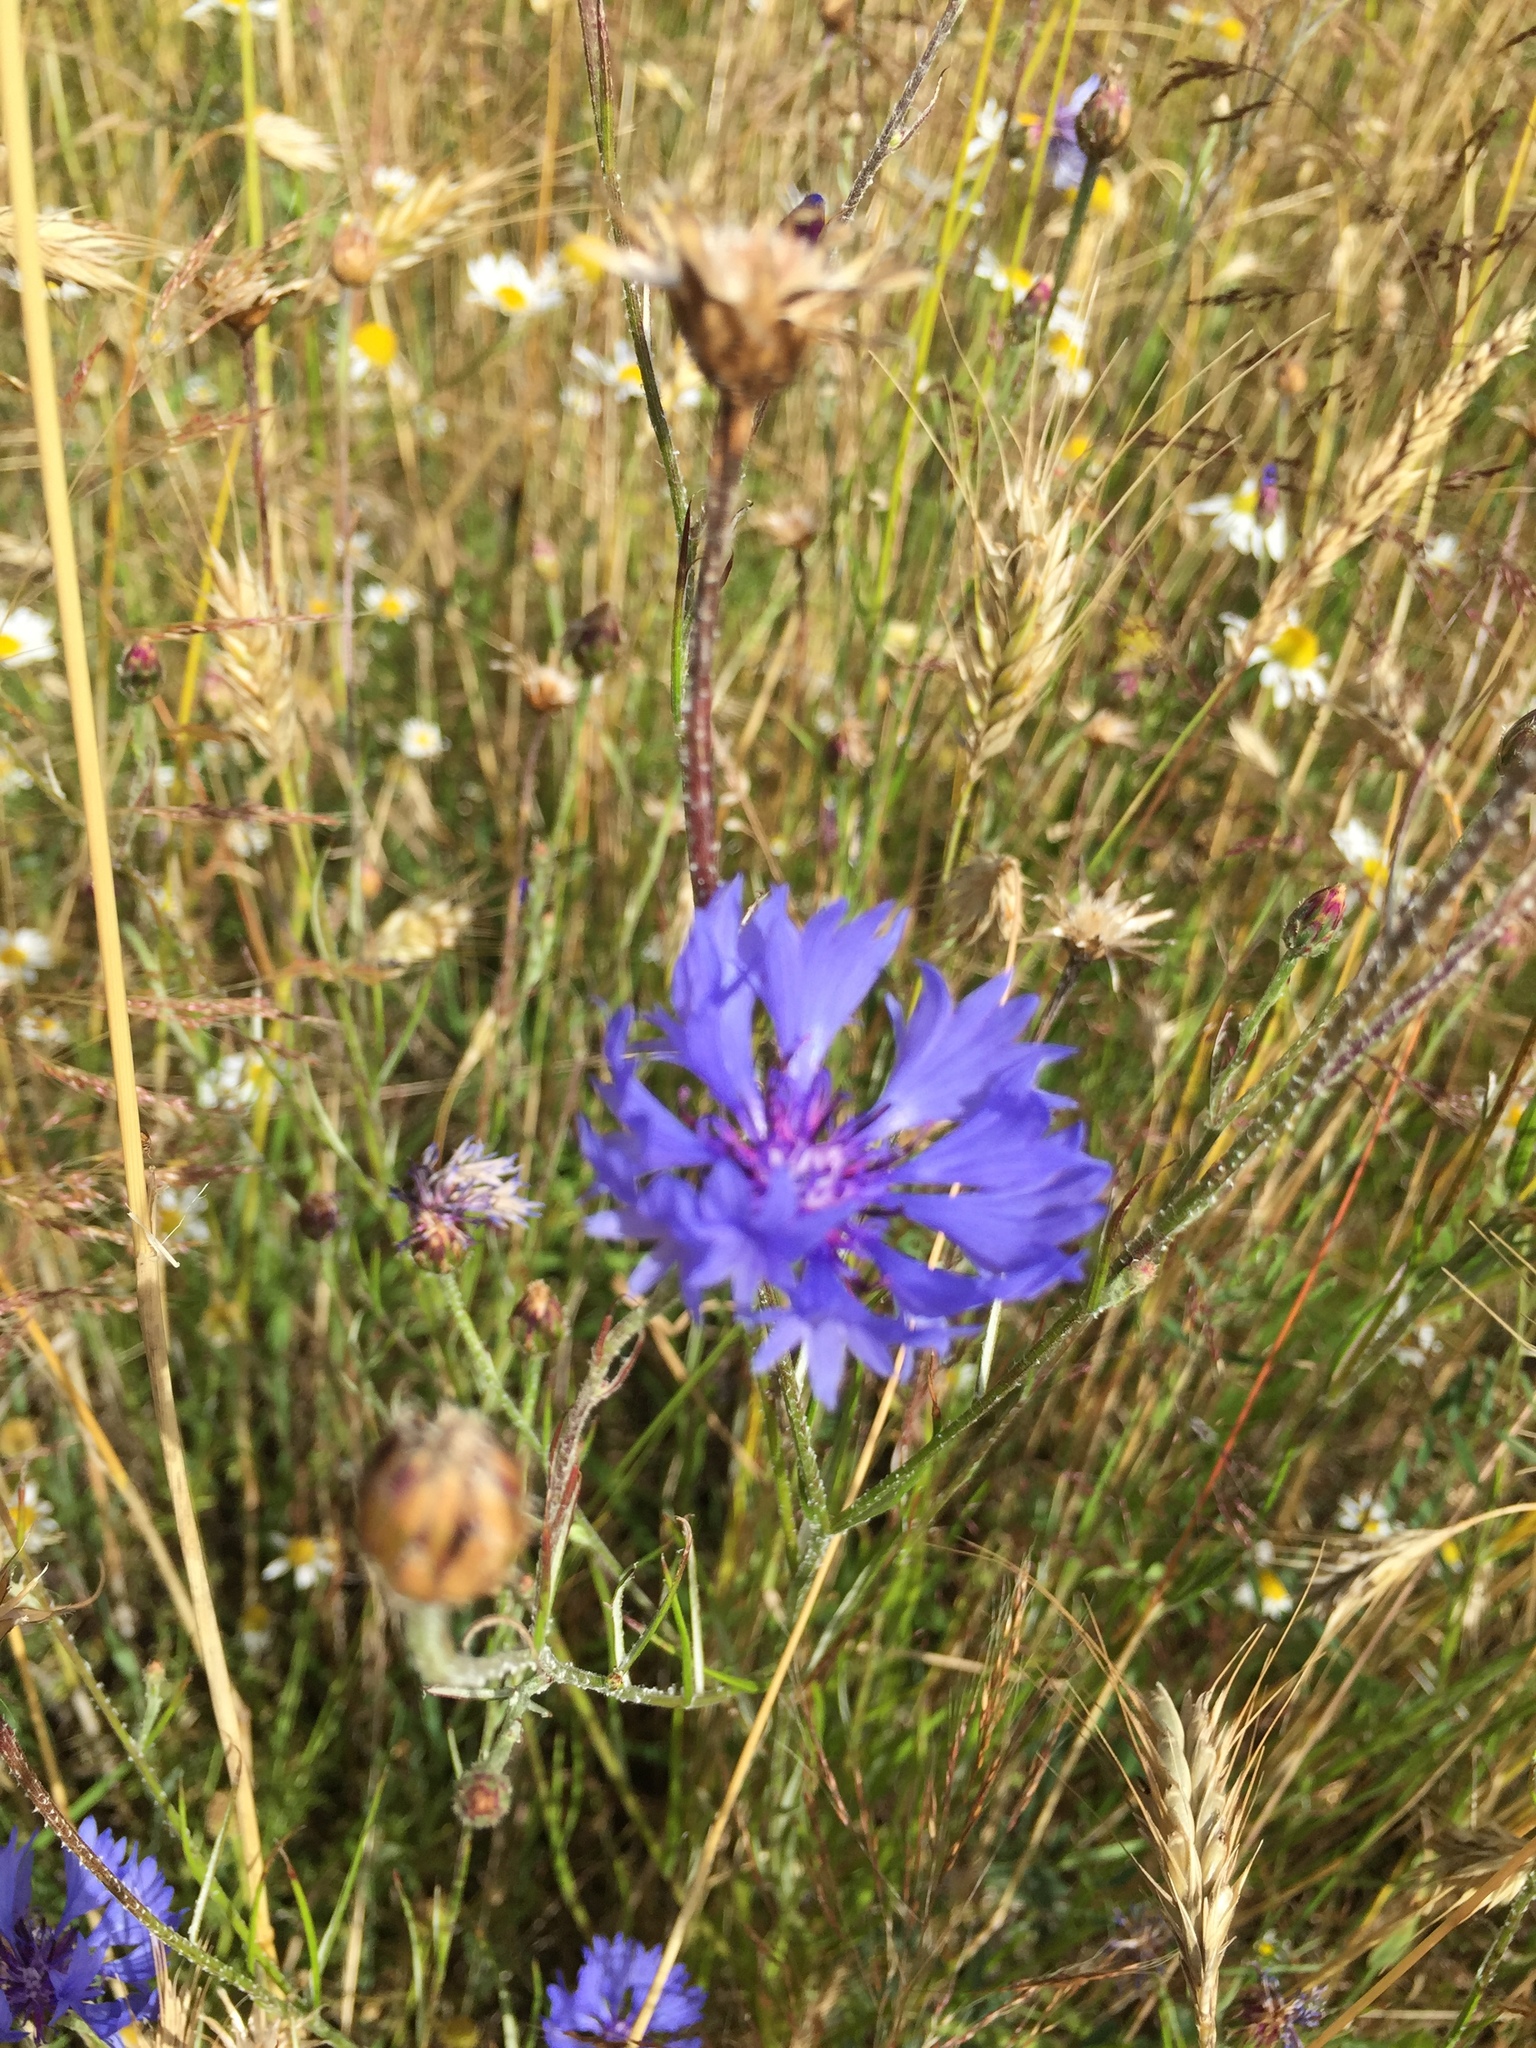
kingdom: Plantae
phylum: Tracheophyta
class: Magnoliopsida
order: Asterales
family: Asteraceae
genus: Centaurea
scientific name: Centaurea cyanus
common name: Cornflower
